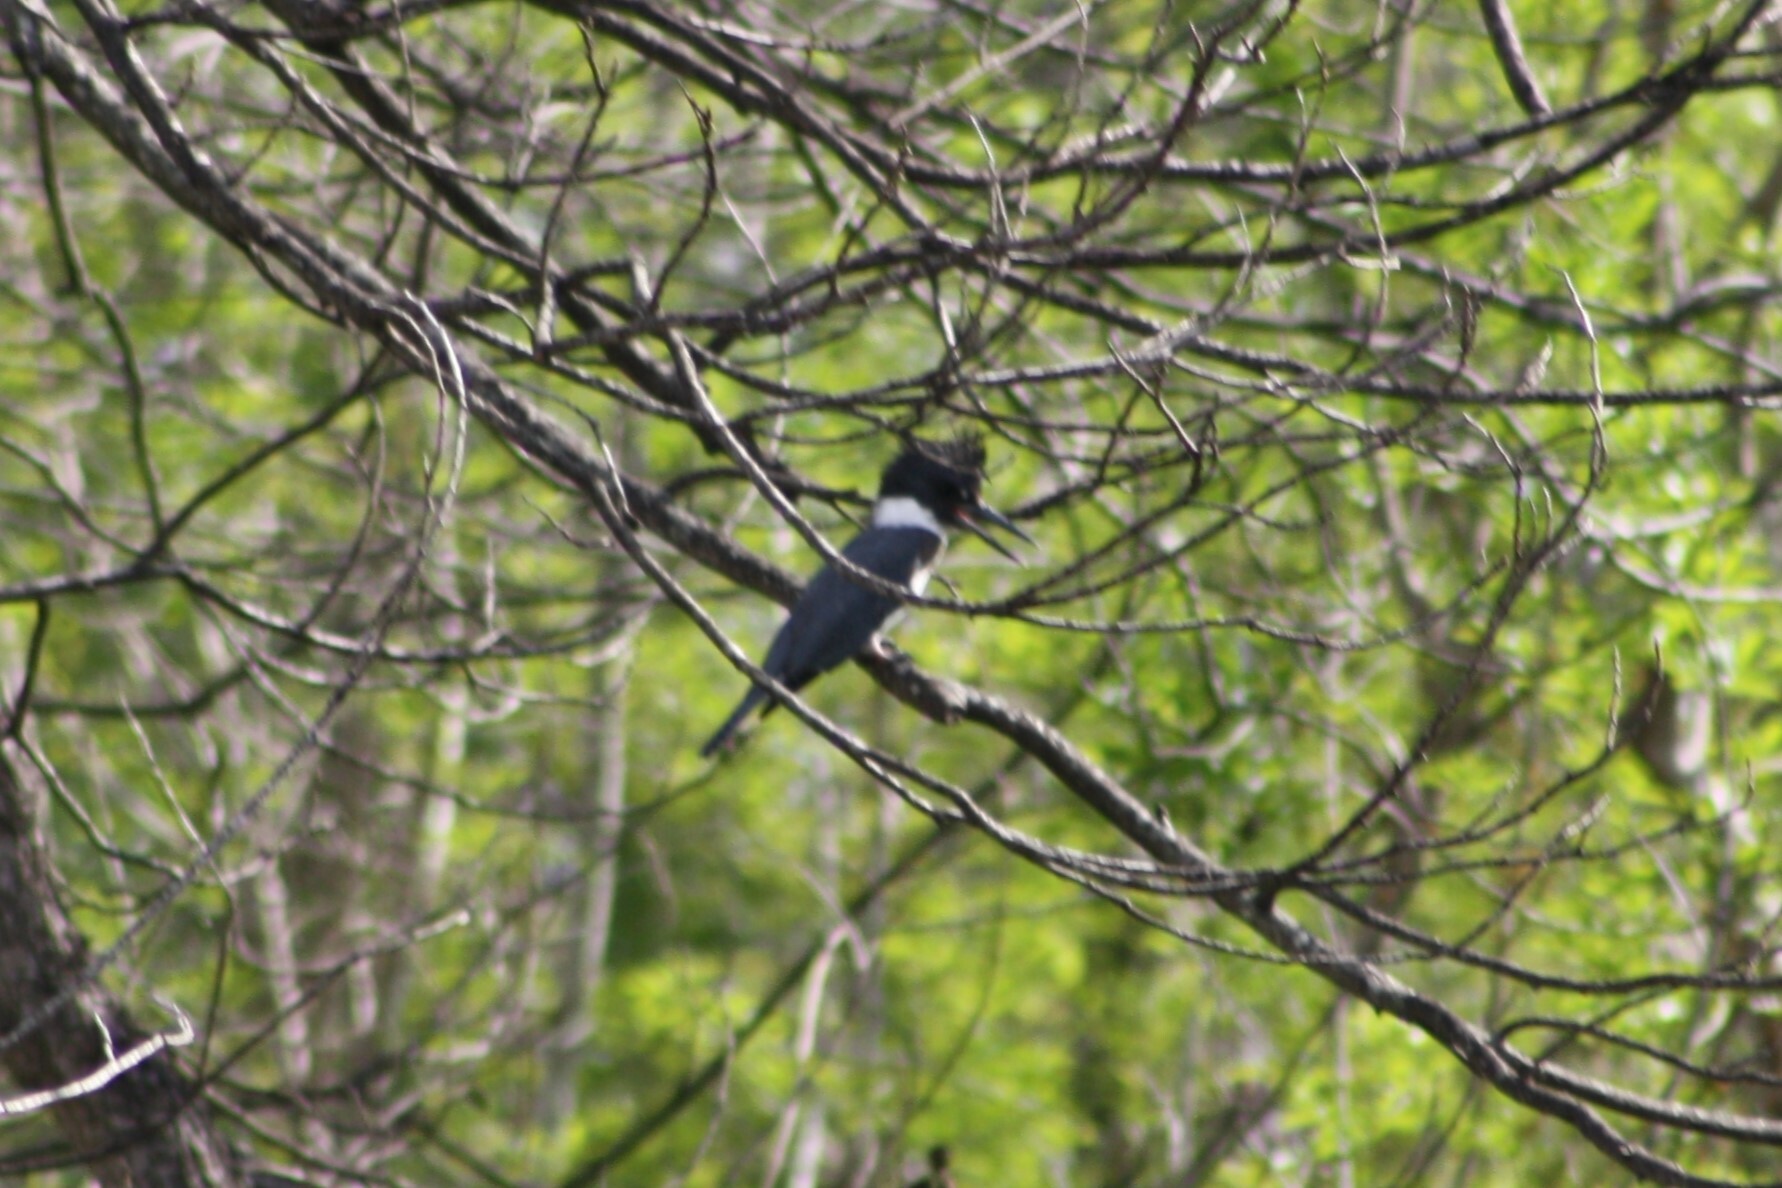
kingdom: Animalia
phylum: Chordata
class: Aves
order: Coraciiformes
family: Alcedinidae
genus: Megaceryle
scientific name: Megaceryle alcyon
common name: Belted kingfisher
